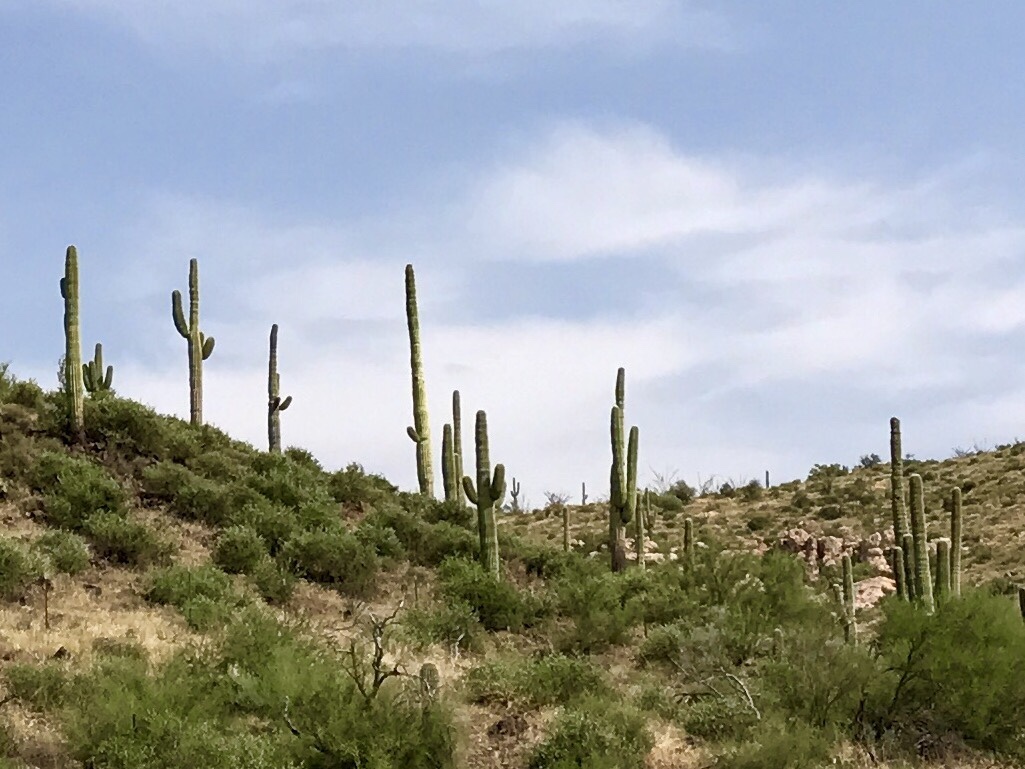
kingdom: Plantae
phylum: Tracheophyta
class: Magnoliopsida
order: Caryophyllales
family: Cactaceae
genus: Carnegiea
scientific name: Carnegiea gigantea
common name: Saguaro
